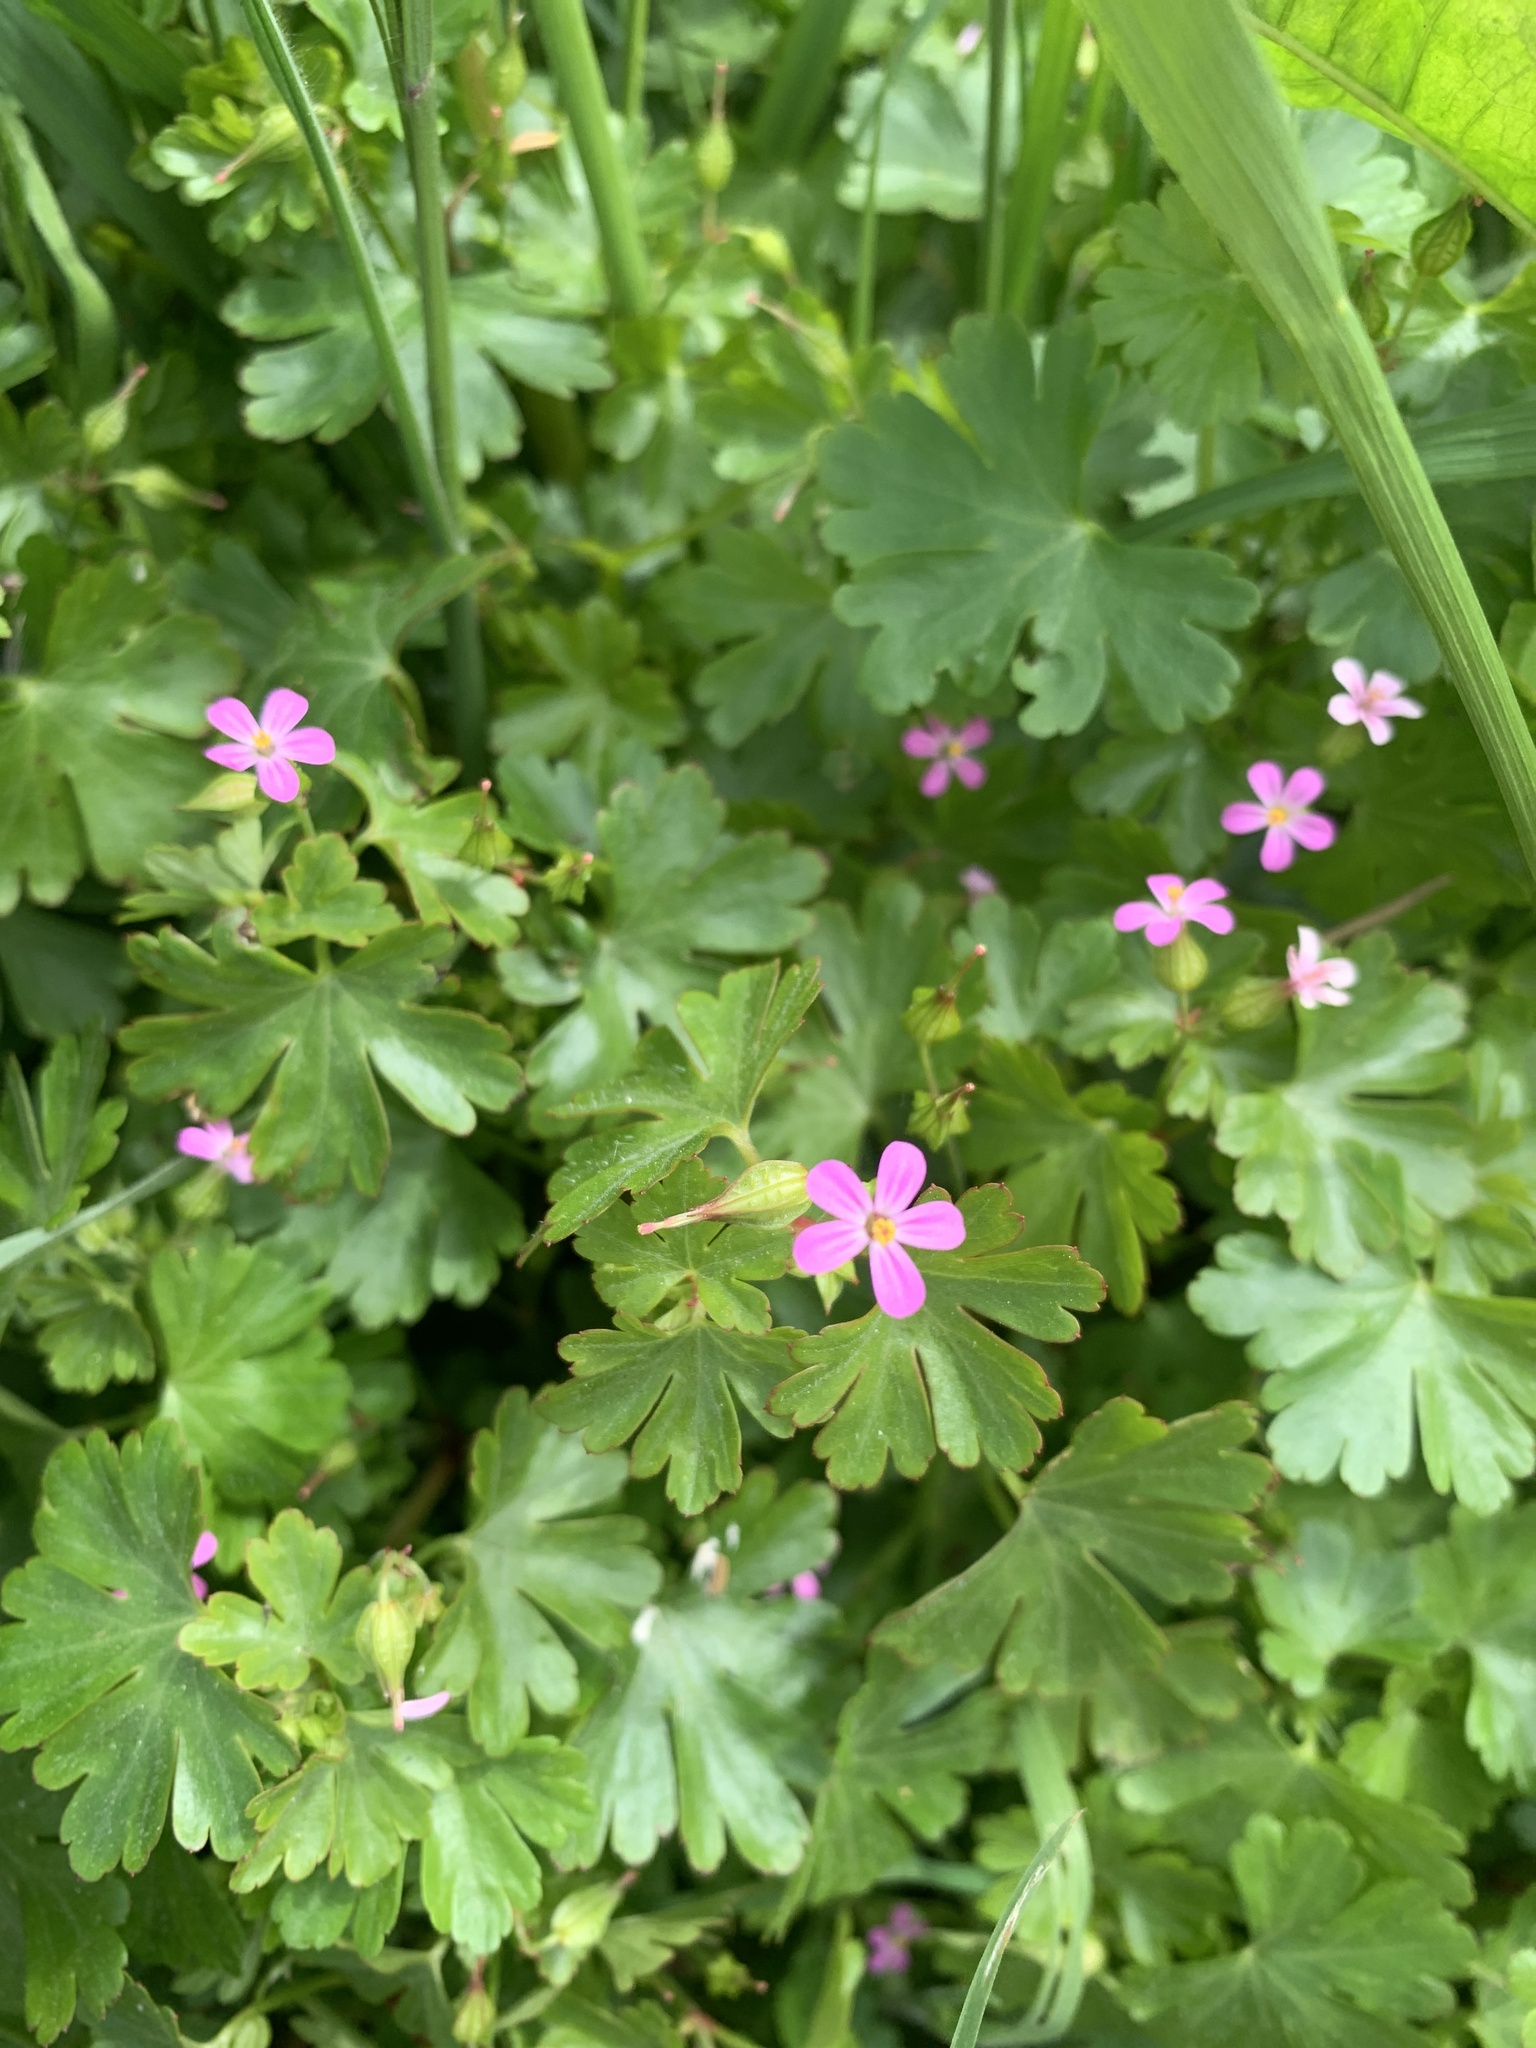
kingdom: Plantae
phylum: Tracheophyta
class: Magnoliopsida
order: Geraniales
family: Geraniaceae
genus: Geranium
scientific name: Geranium lucidum
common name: Shining crane's-bill
